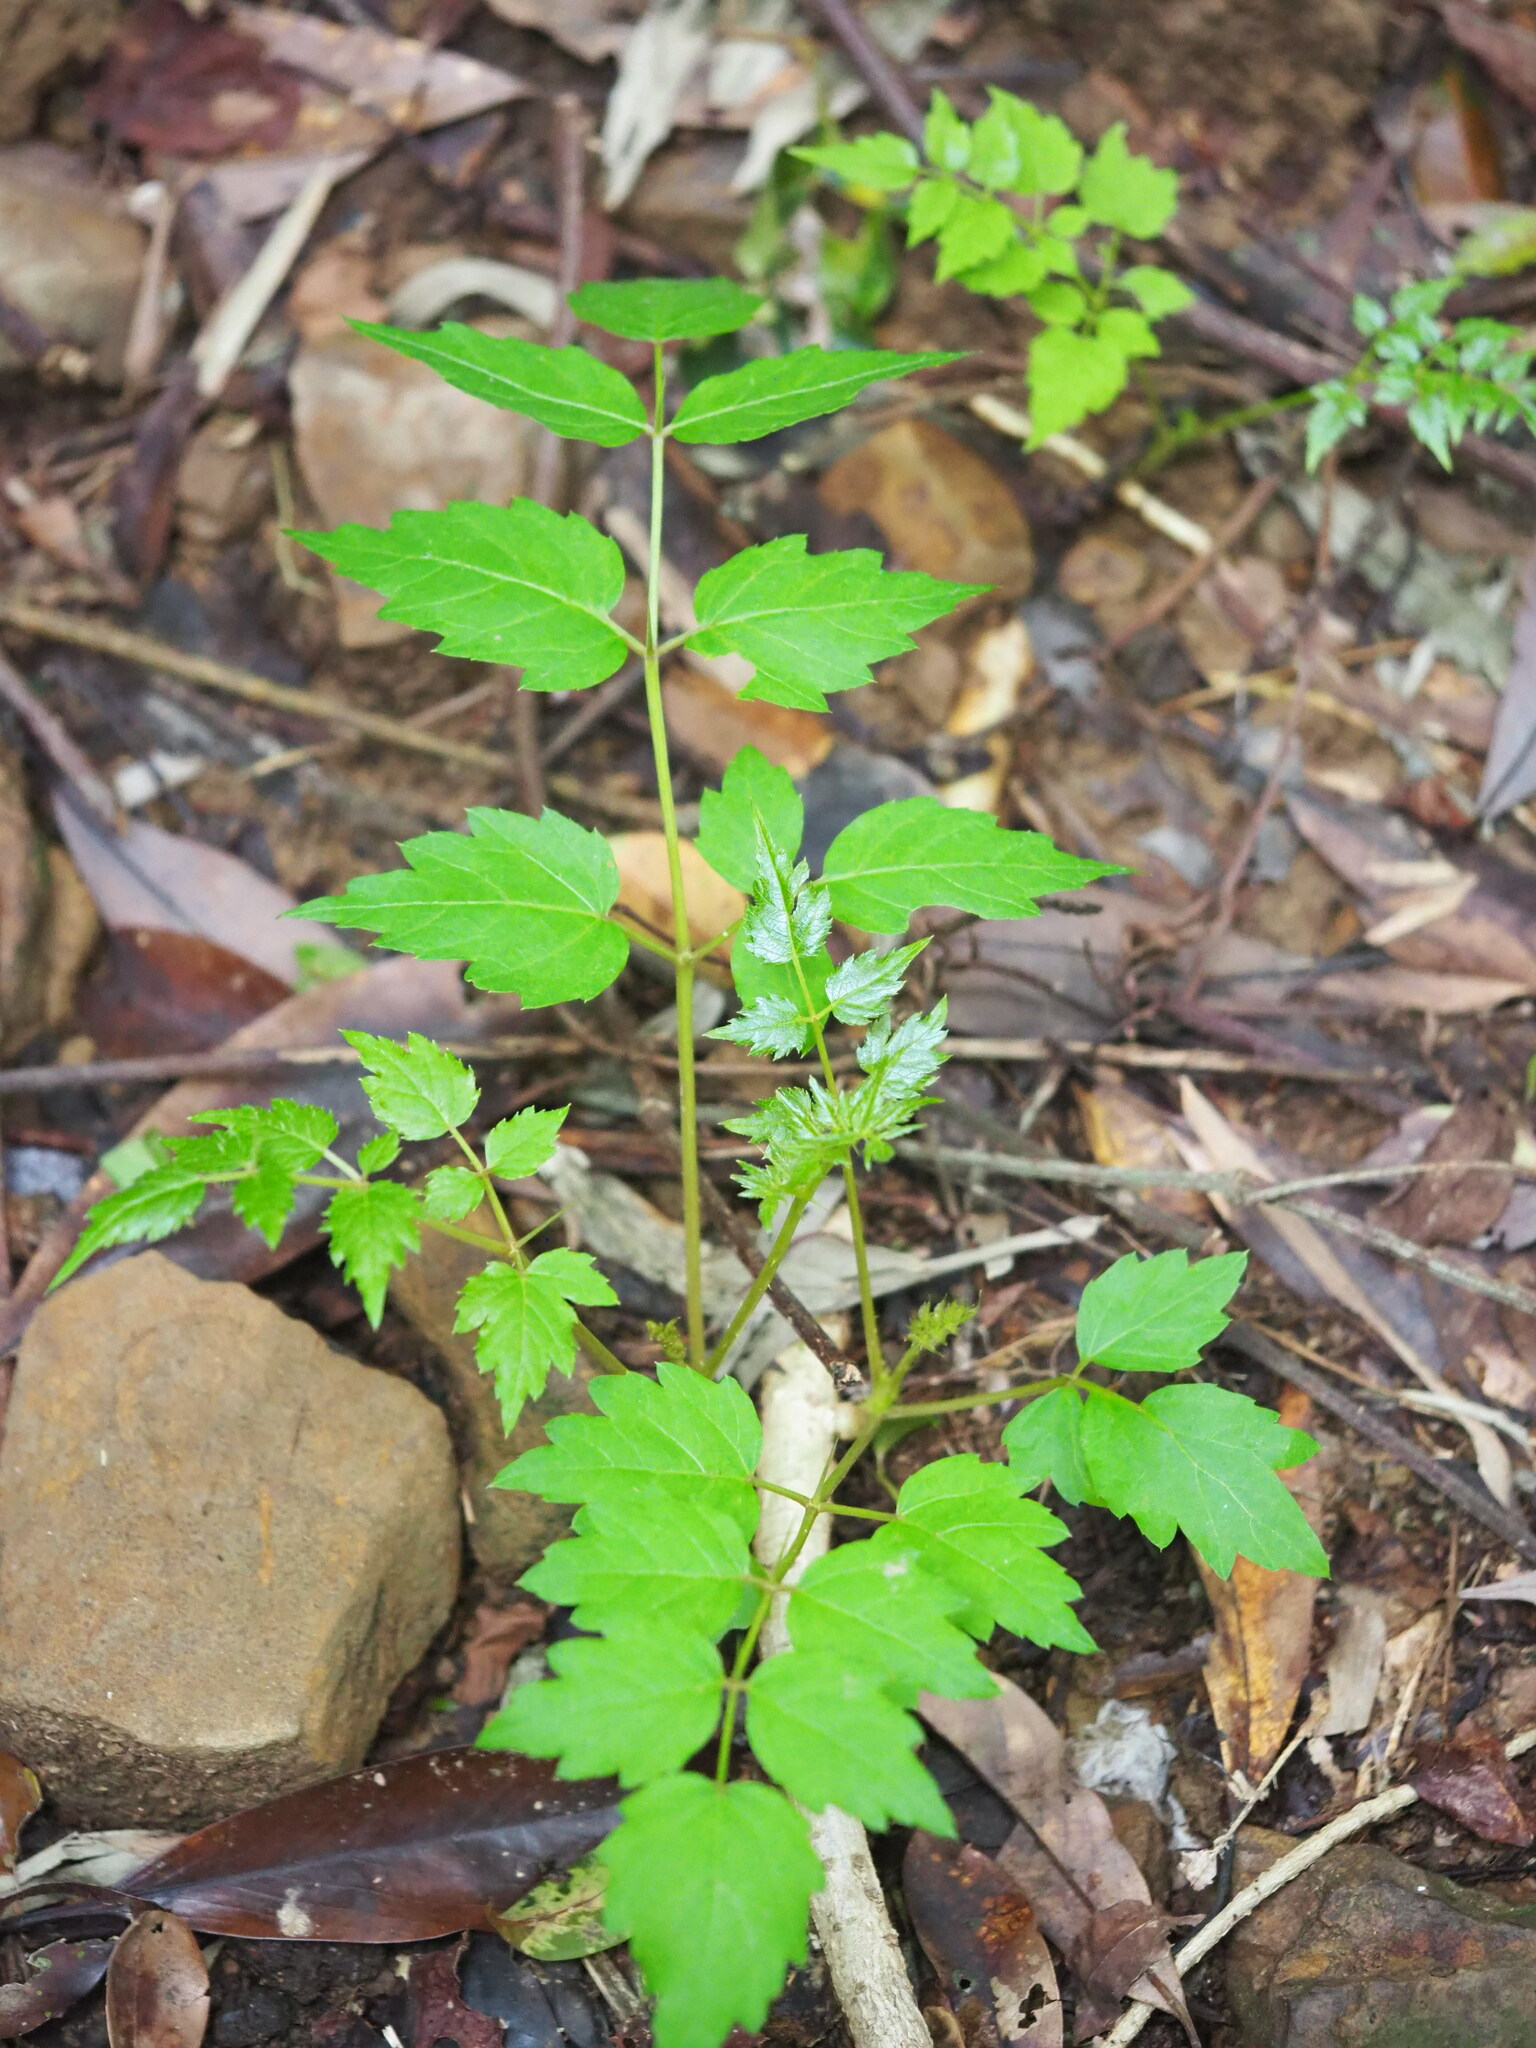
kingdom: Plantae
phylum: Tracheophyta
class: Magnoliopsida
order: Apiales
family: Araliaceae
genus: Aralia
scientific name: Aralia bipinnata
